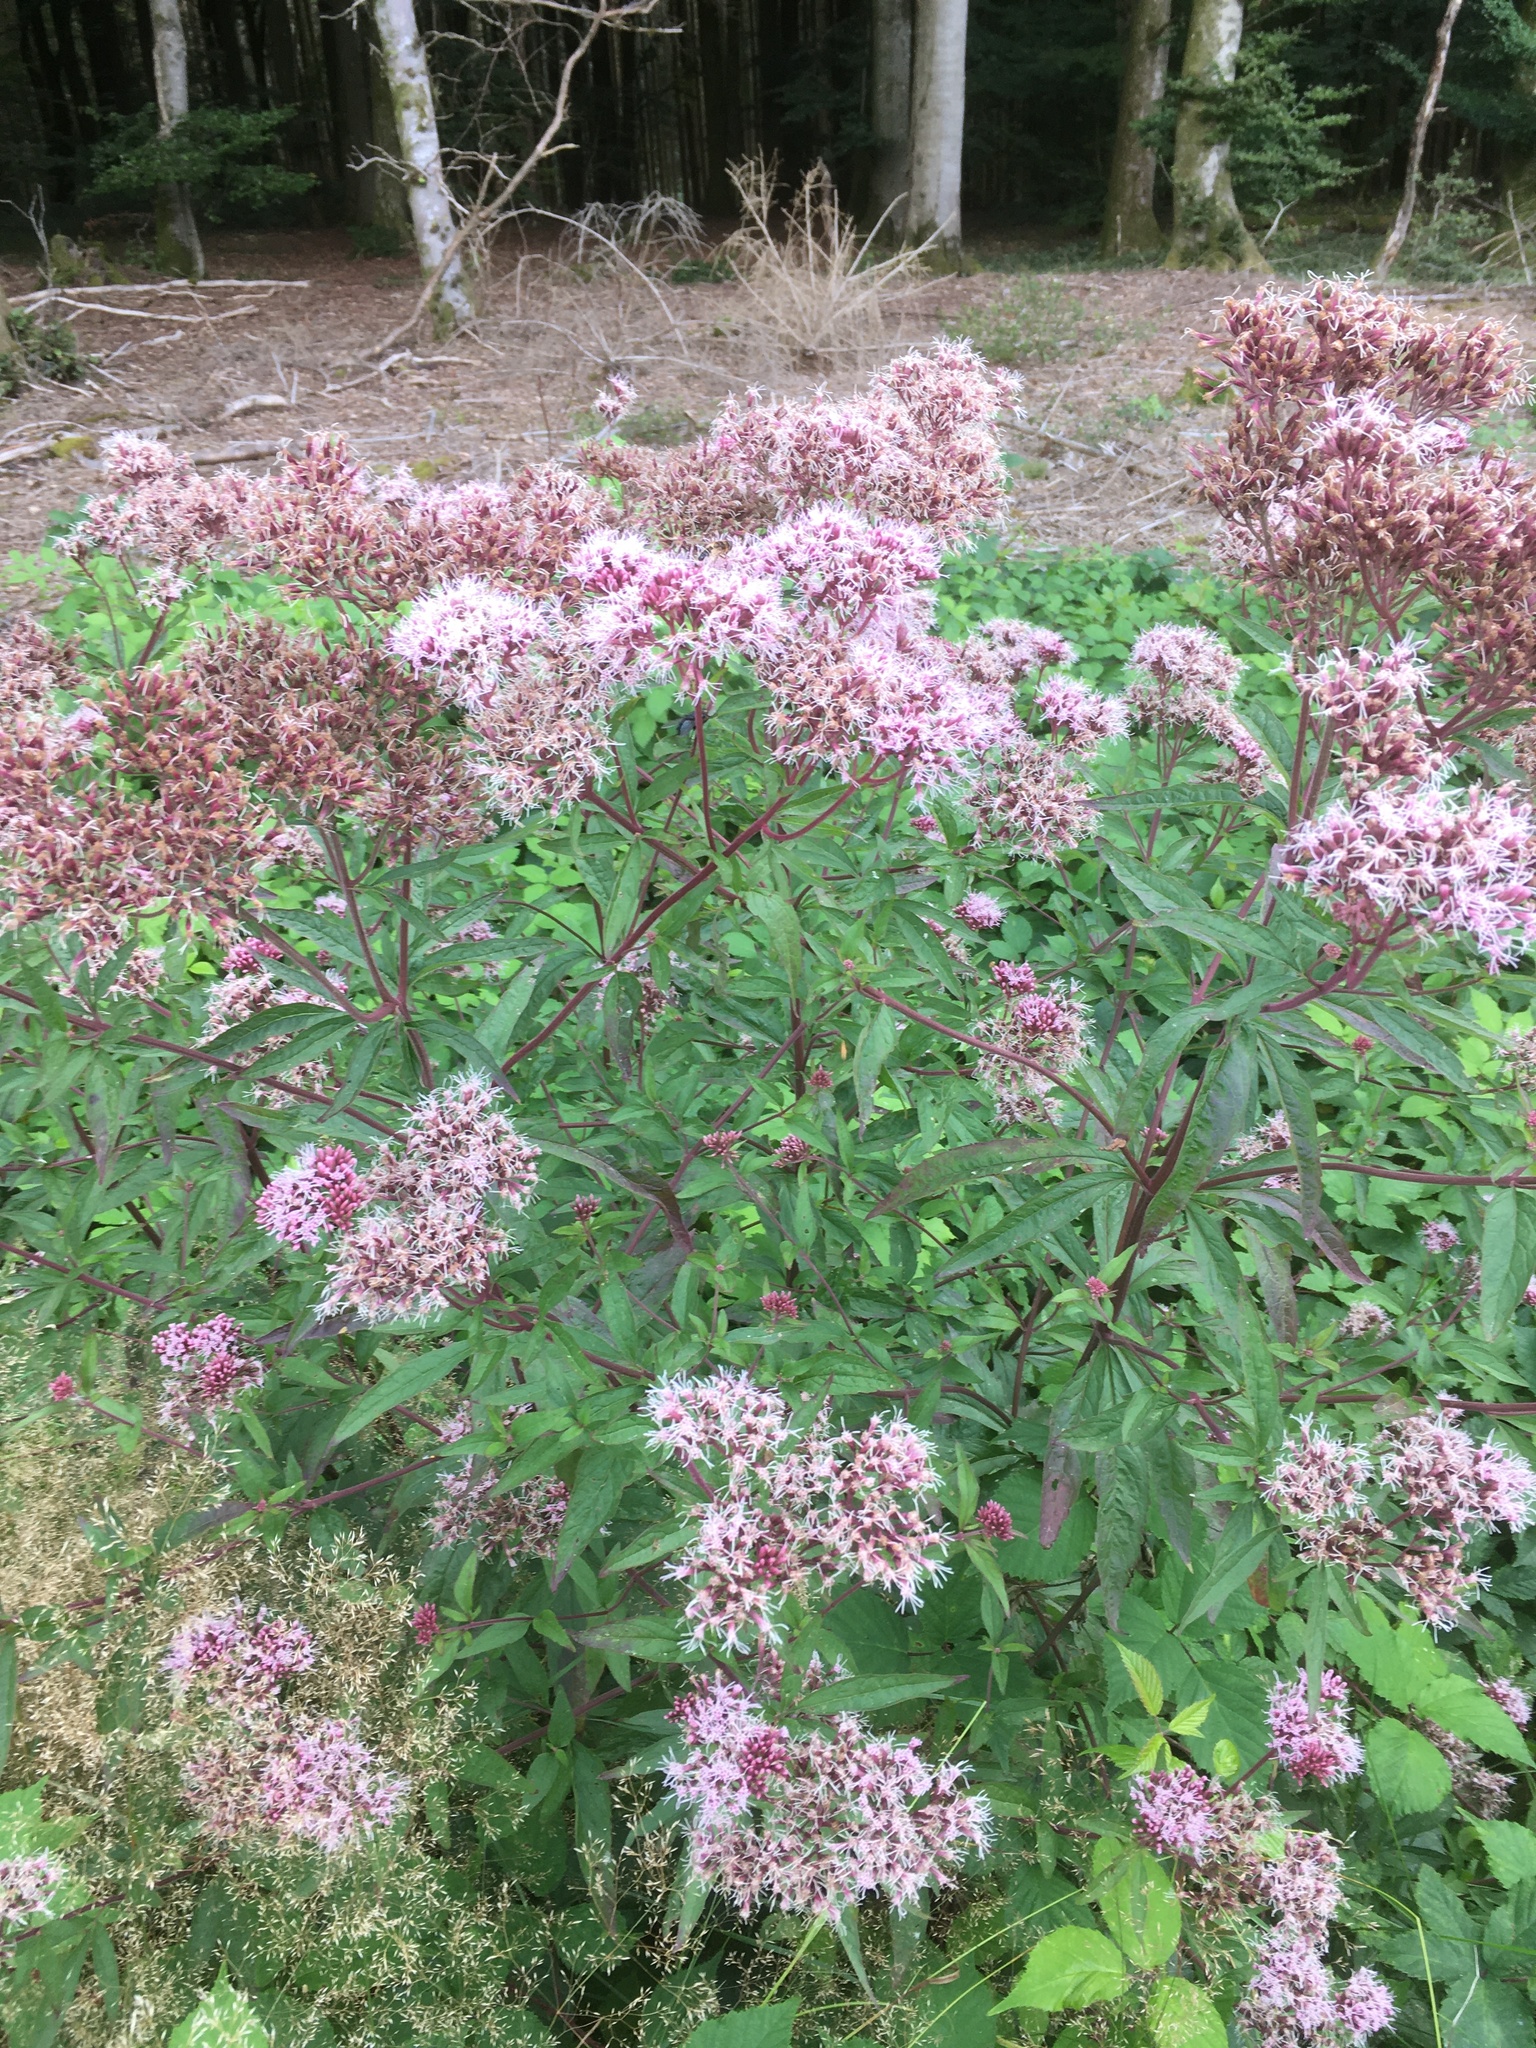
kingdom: Plantae
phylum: Tracheophyta
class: Magnoliopsida
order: Asterales
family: Asteraceae
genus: Eupatorium
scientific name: Eupatorium cannabinum
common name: Hemp-agrimony
